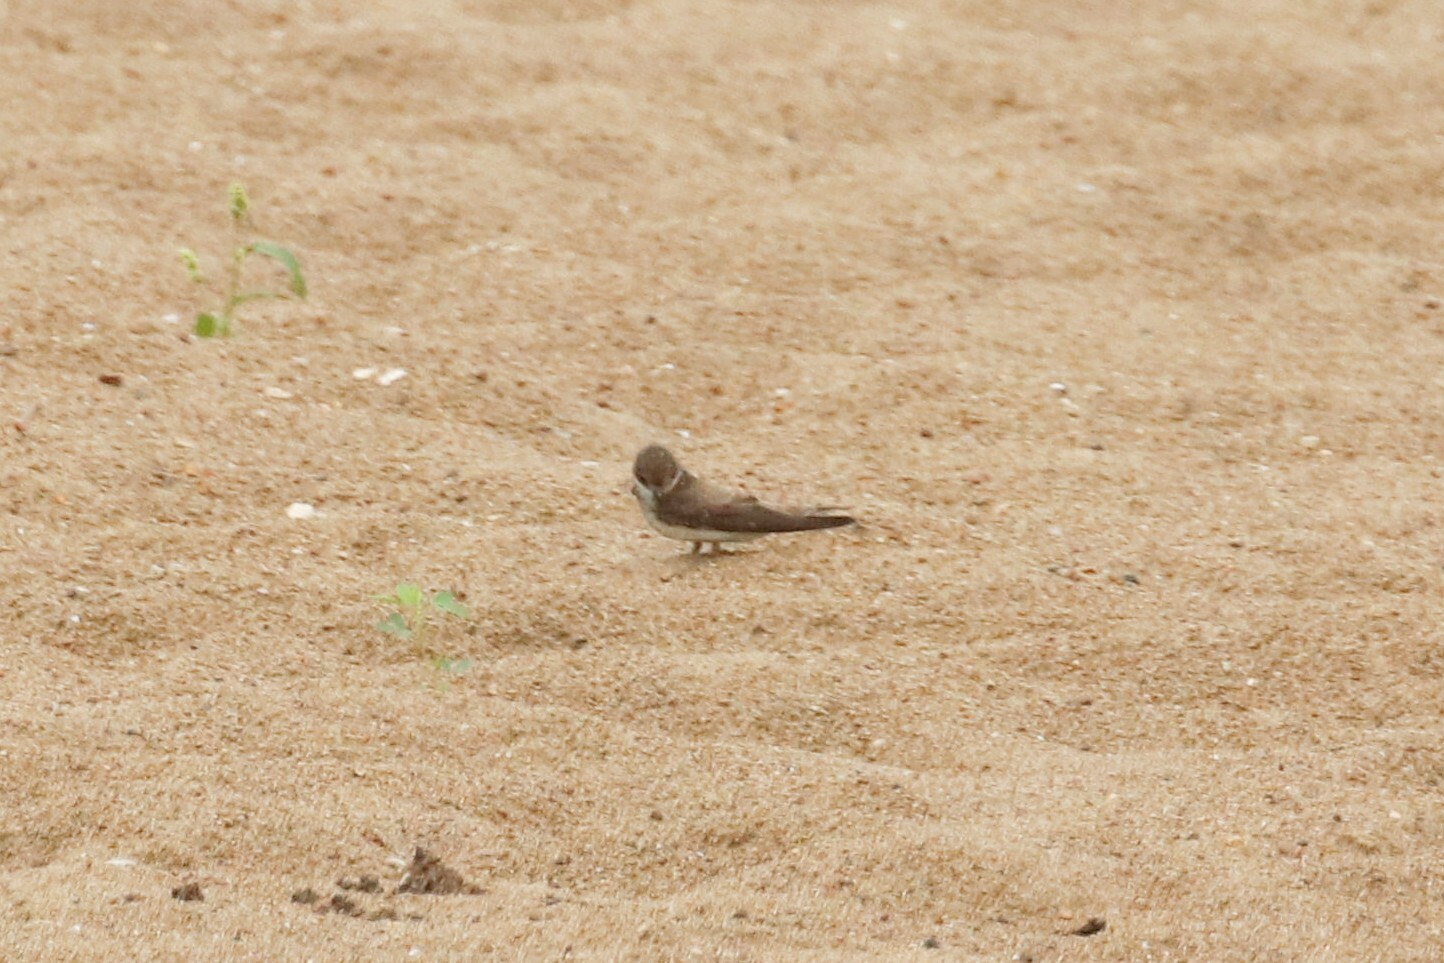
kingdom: Animalia
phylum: Chordata
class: Aves
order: Passeriformes
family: Hirundinidae
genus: Riparia
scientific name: Riparia riparia
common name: Sand martin
